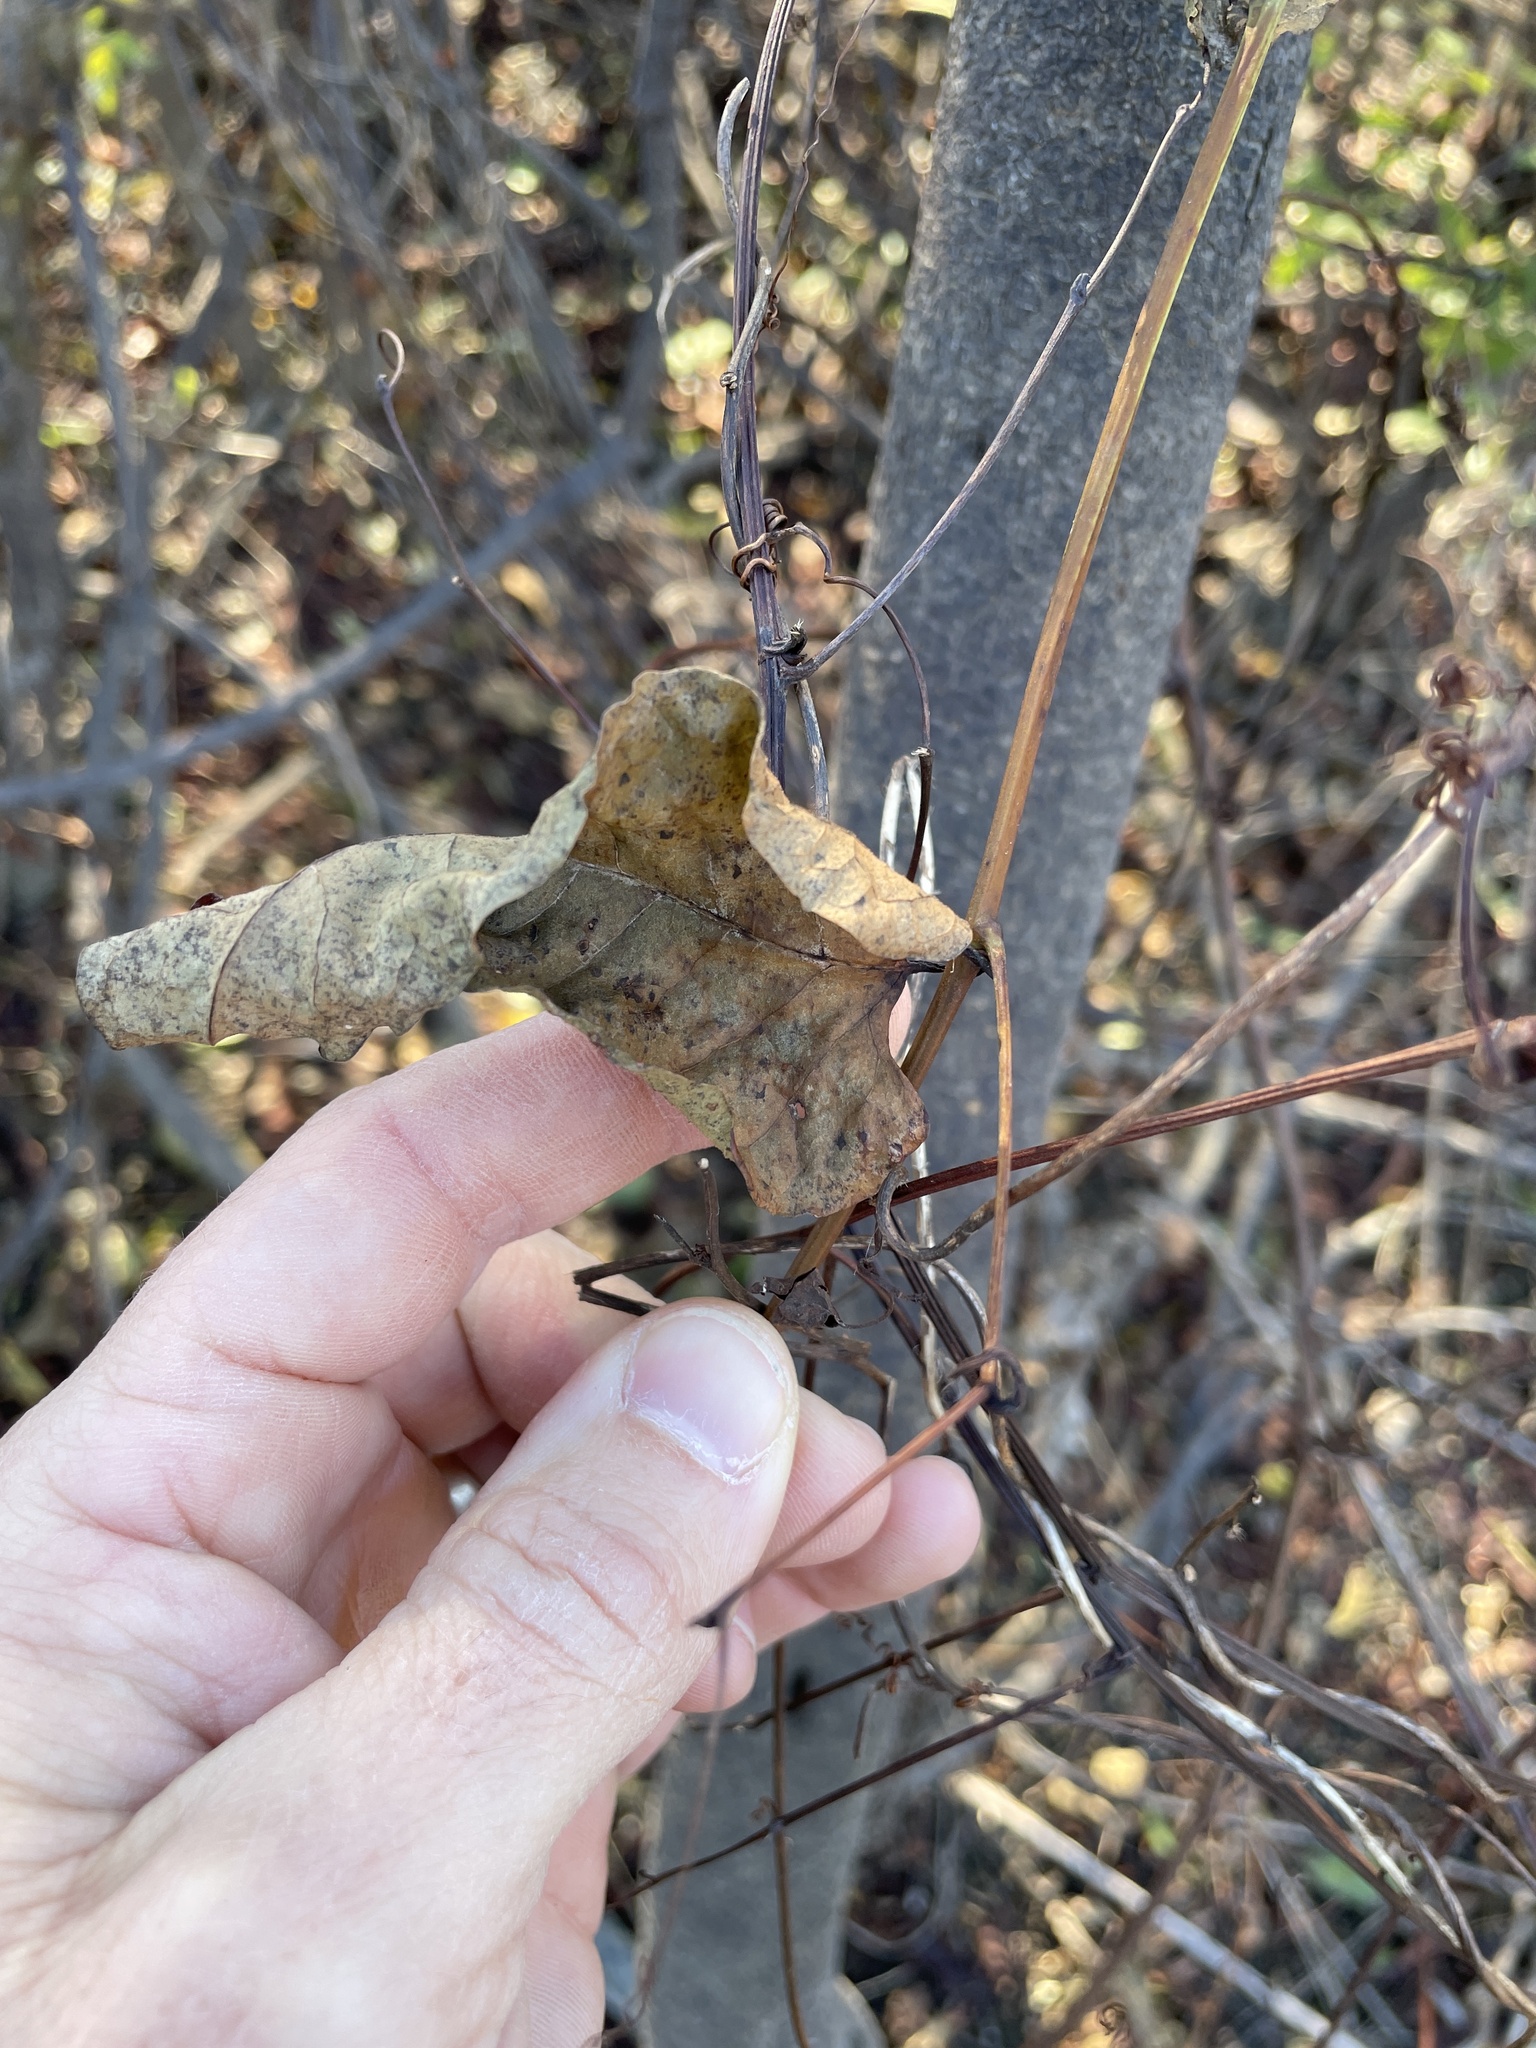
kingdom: Plantae
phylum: Tracheophyta
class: Magnoliopsida
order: Caryophyllales
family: Polygonaceae
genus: Brunnichia
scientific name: Brunnichia ovata
